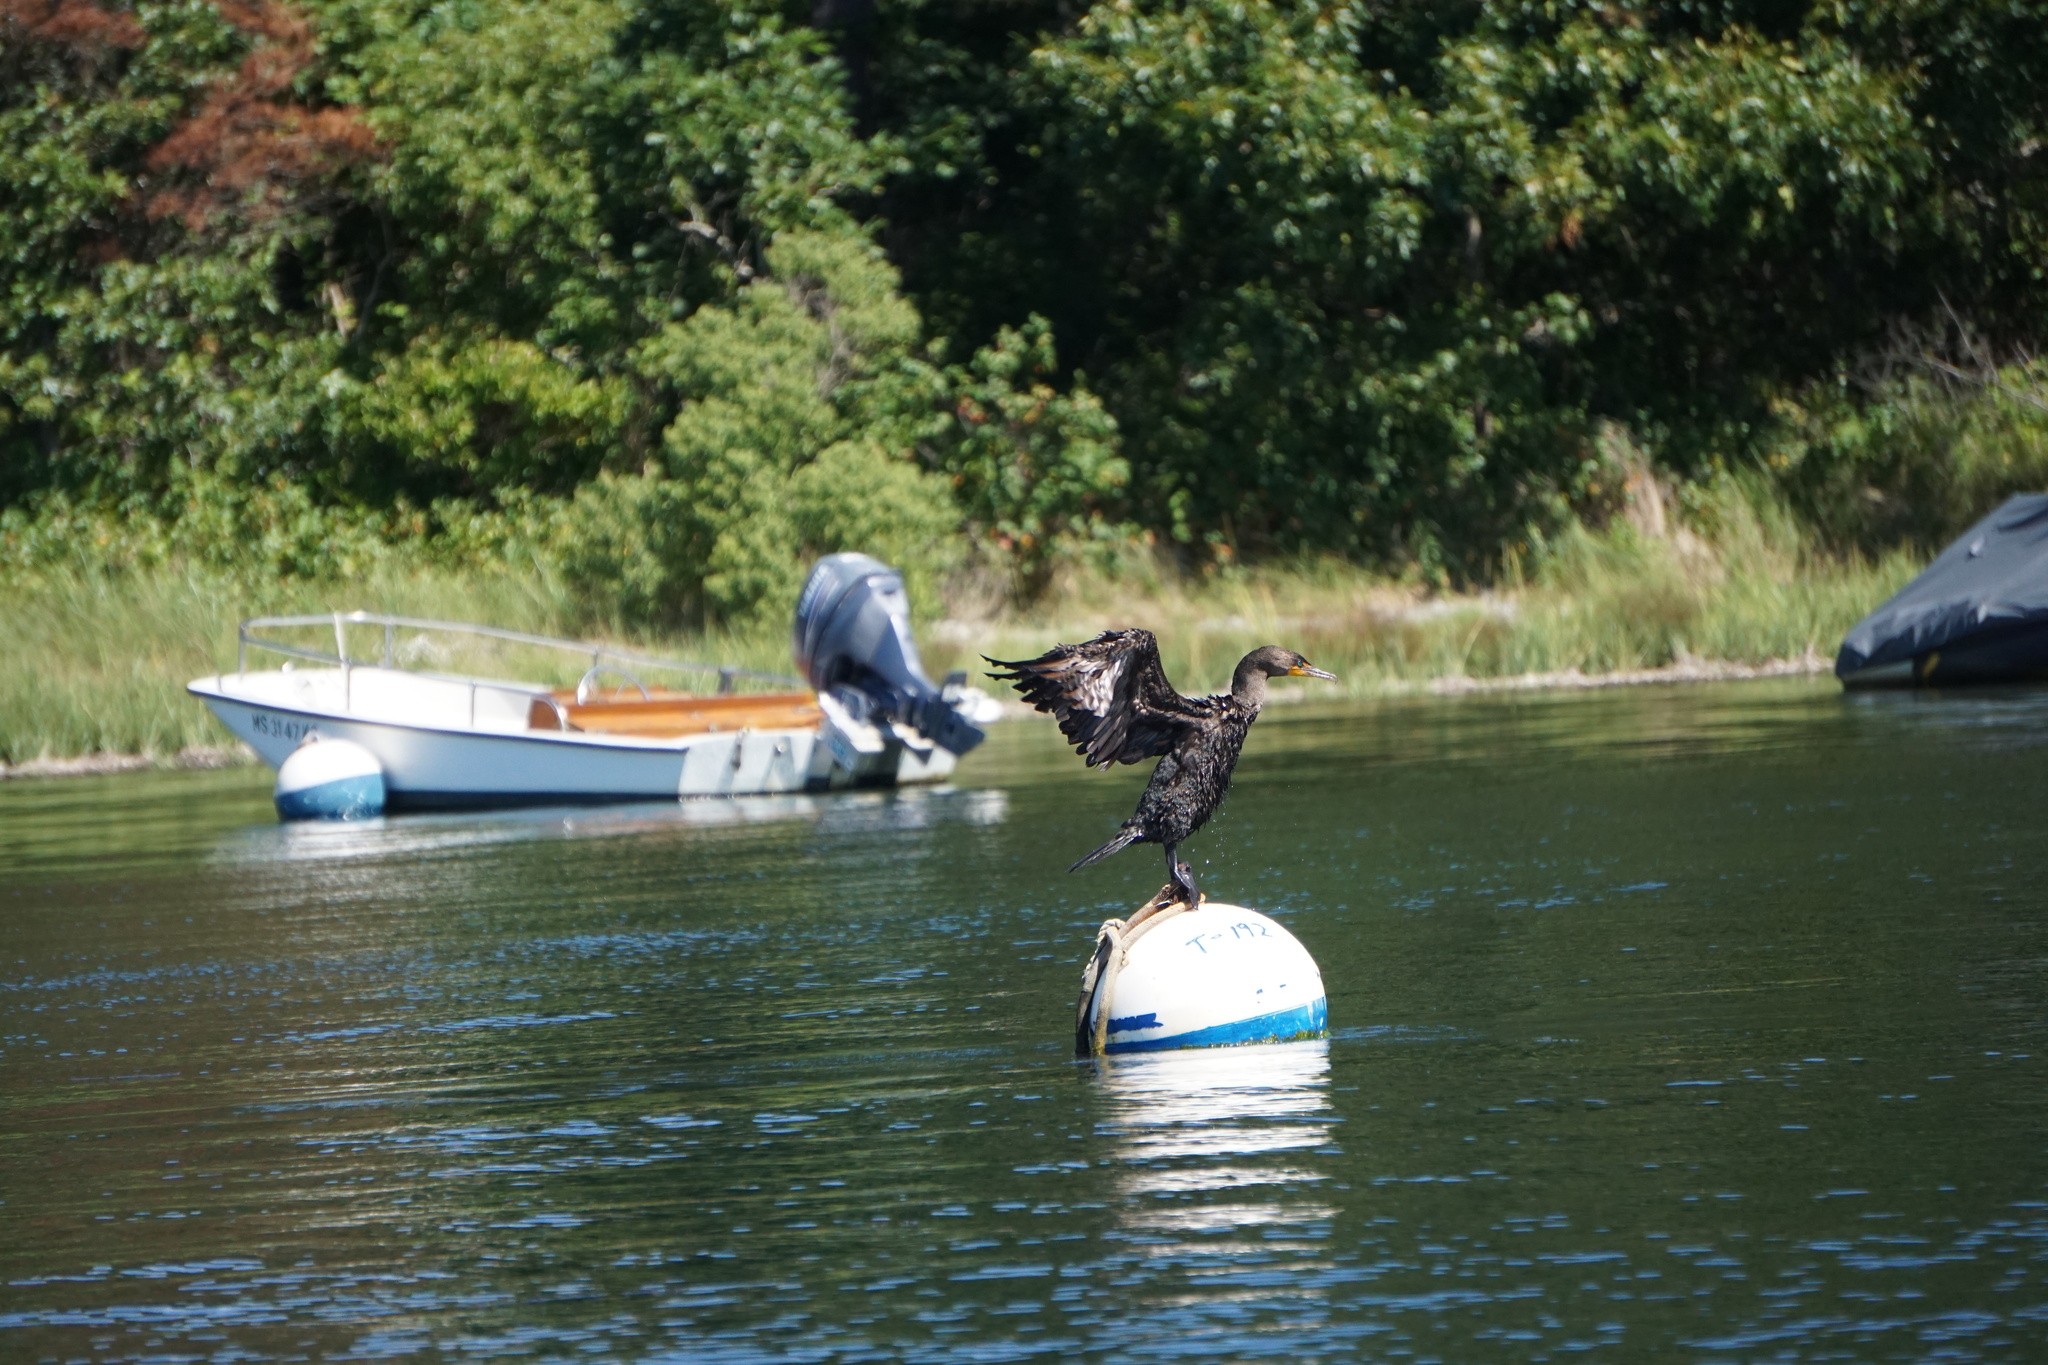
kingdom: Animalia
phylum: Chordata
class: Aves
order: Suliformes
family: Phalacrocoracidae
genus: Phalacrocorax
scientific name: Phalacrocorax auritus
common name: Double-crested cormorant
